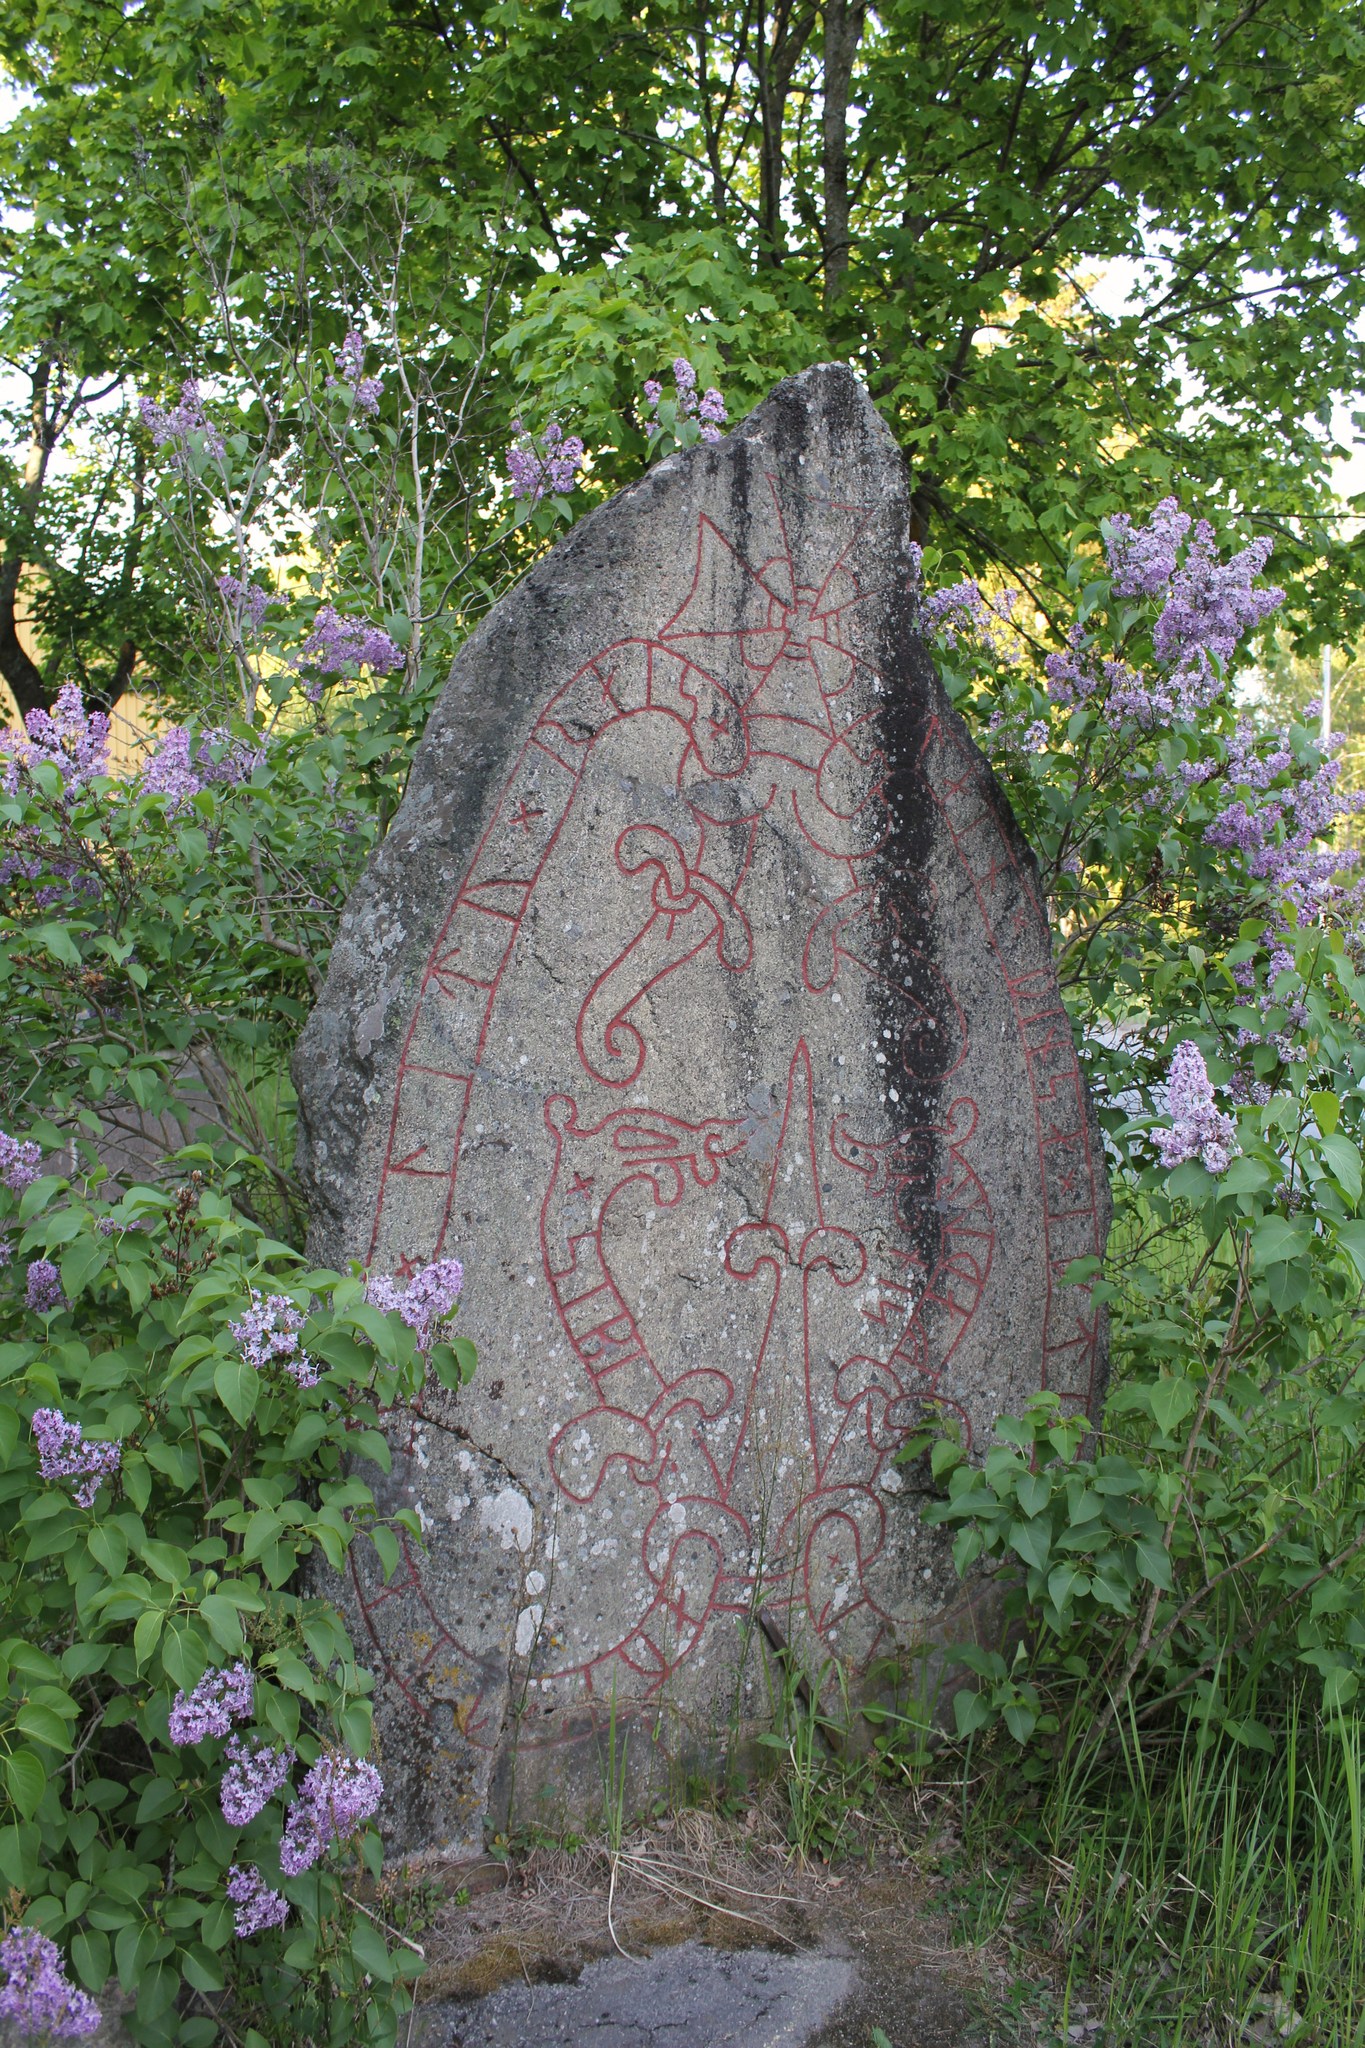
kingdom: Plantae
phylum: Tracheophyta
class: Magnoliopsida
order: Lamiales
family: Oleaceae
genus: Syringa
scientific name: Syringa vulgaris
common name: Common lilac
